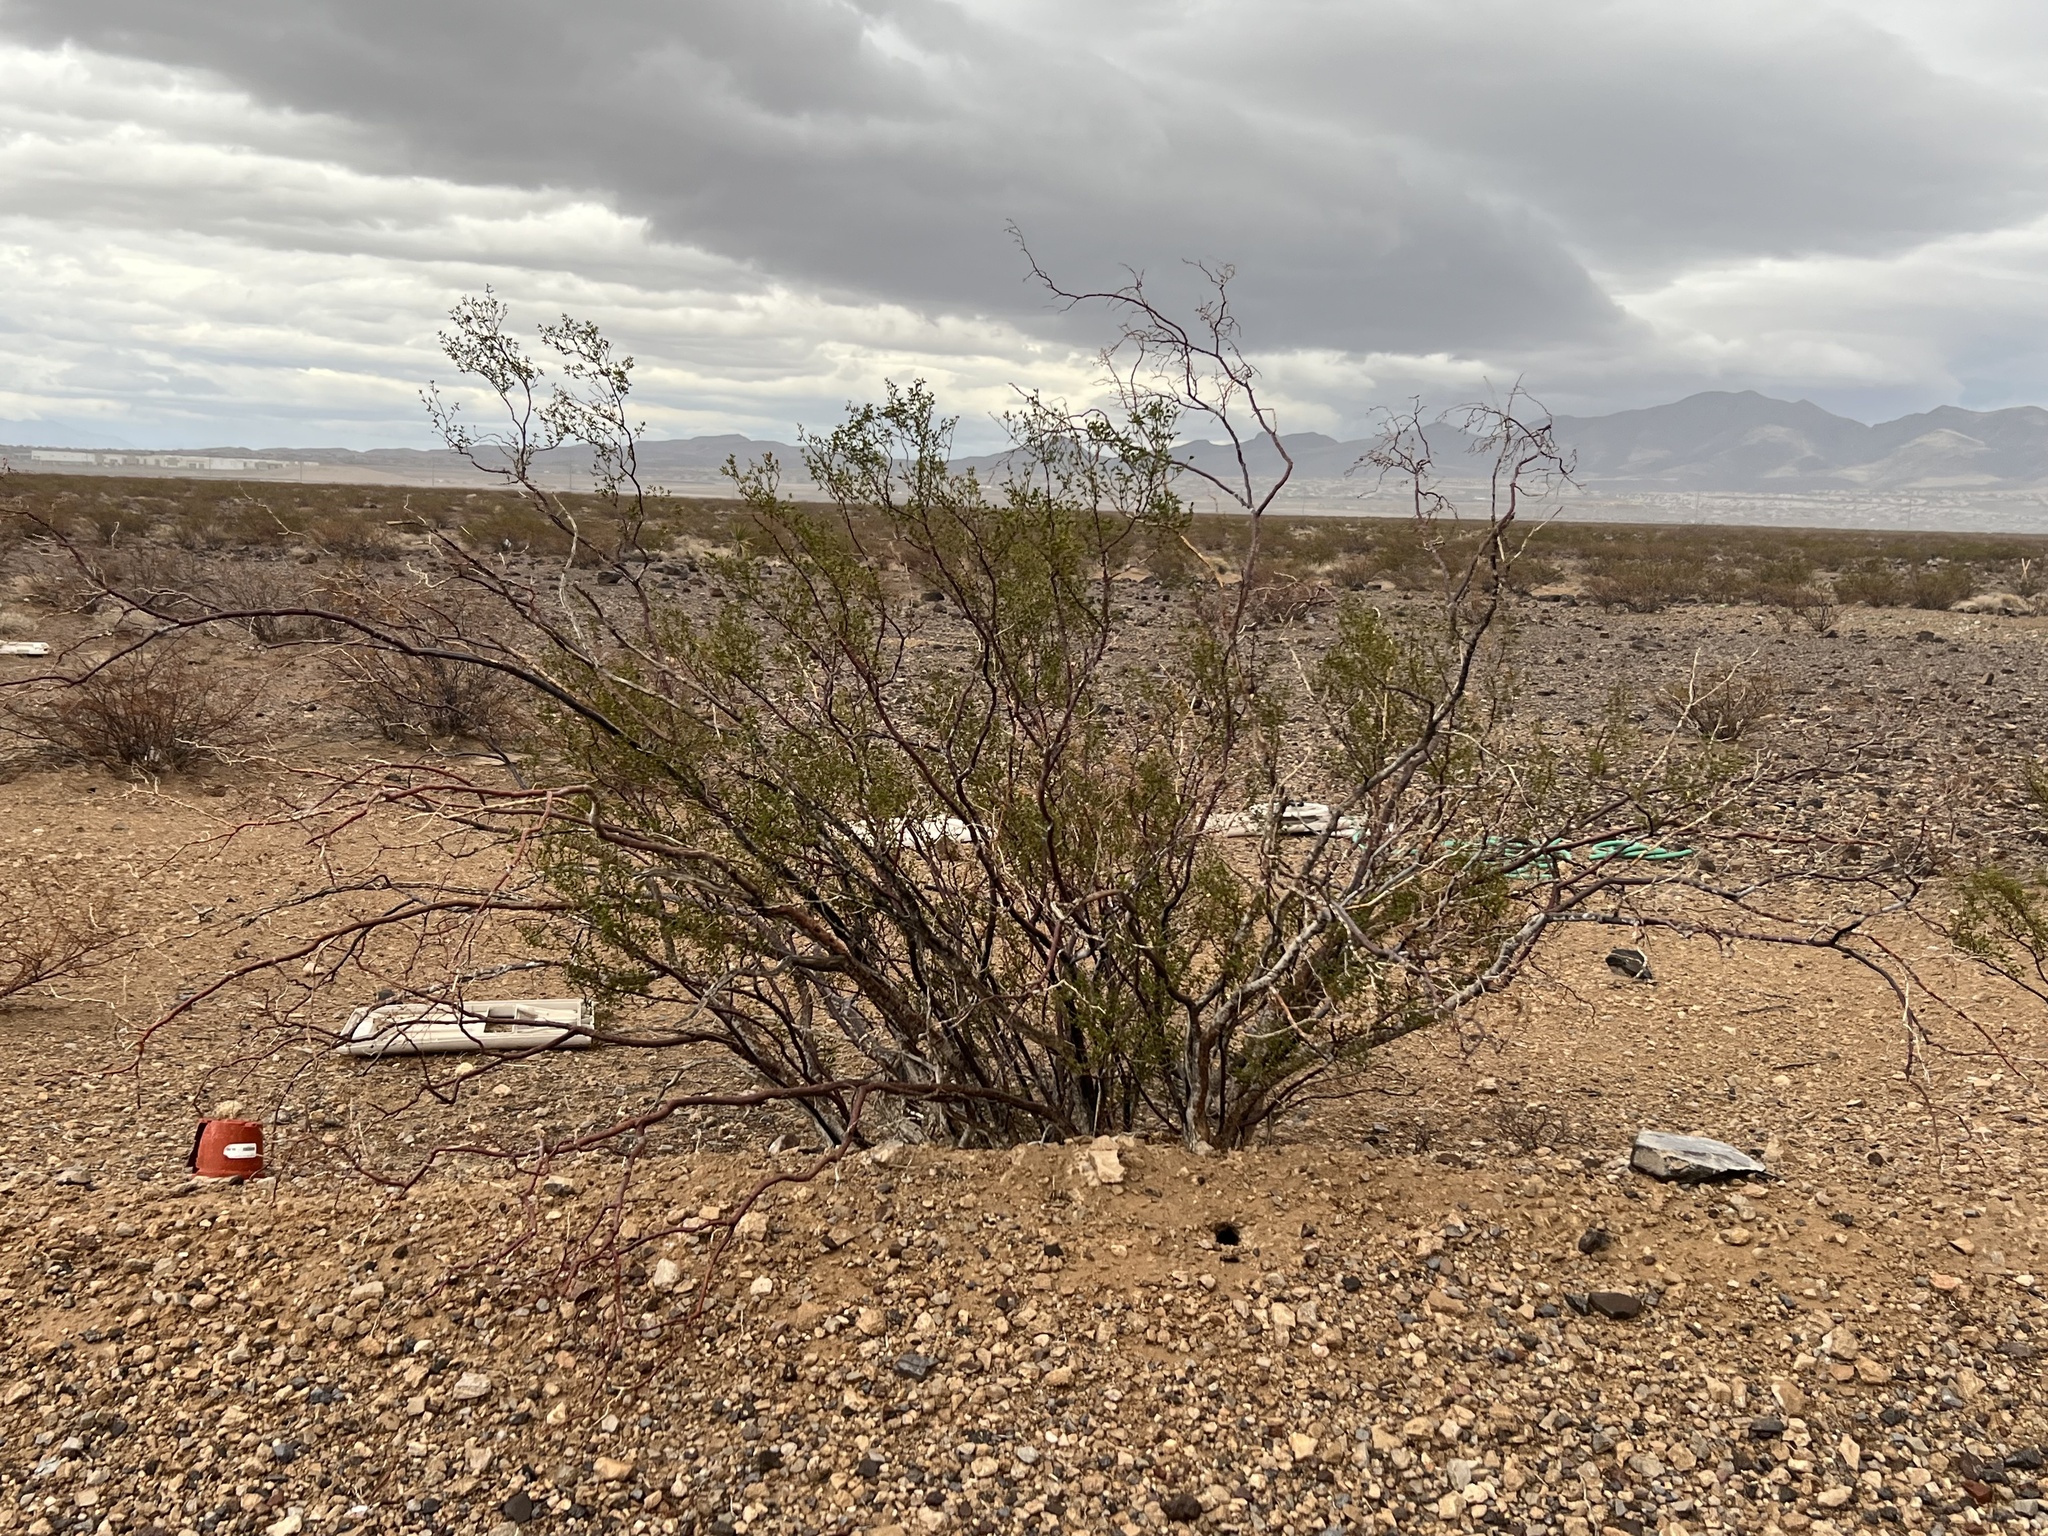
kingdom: Plantae
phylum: Tracheophyta
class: Magnoliopsida
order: Zygophyllales
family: Zygophyllaceae
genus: Larrea
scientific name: Larrea tridentata
